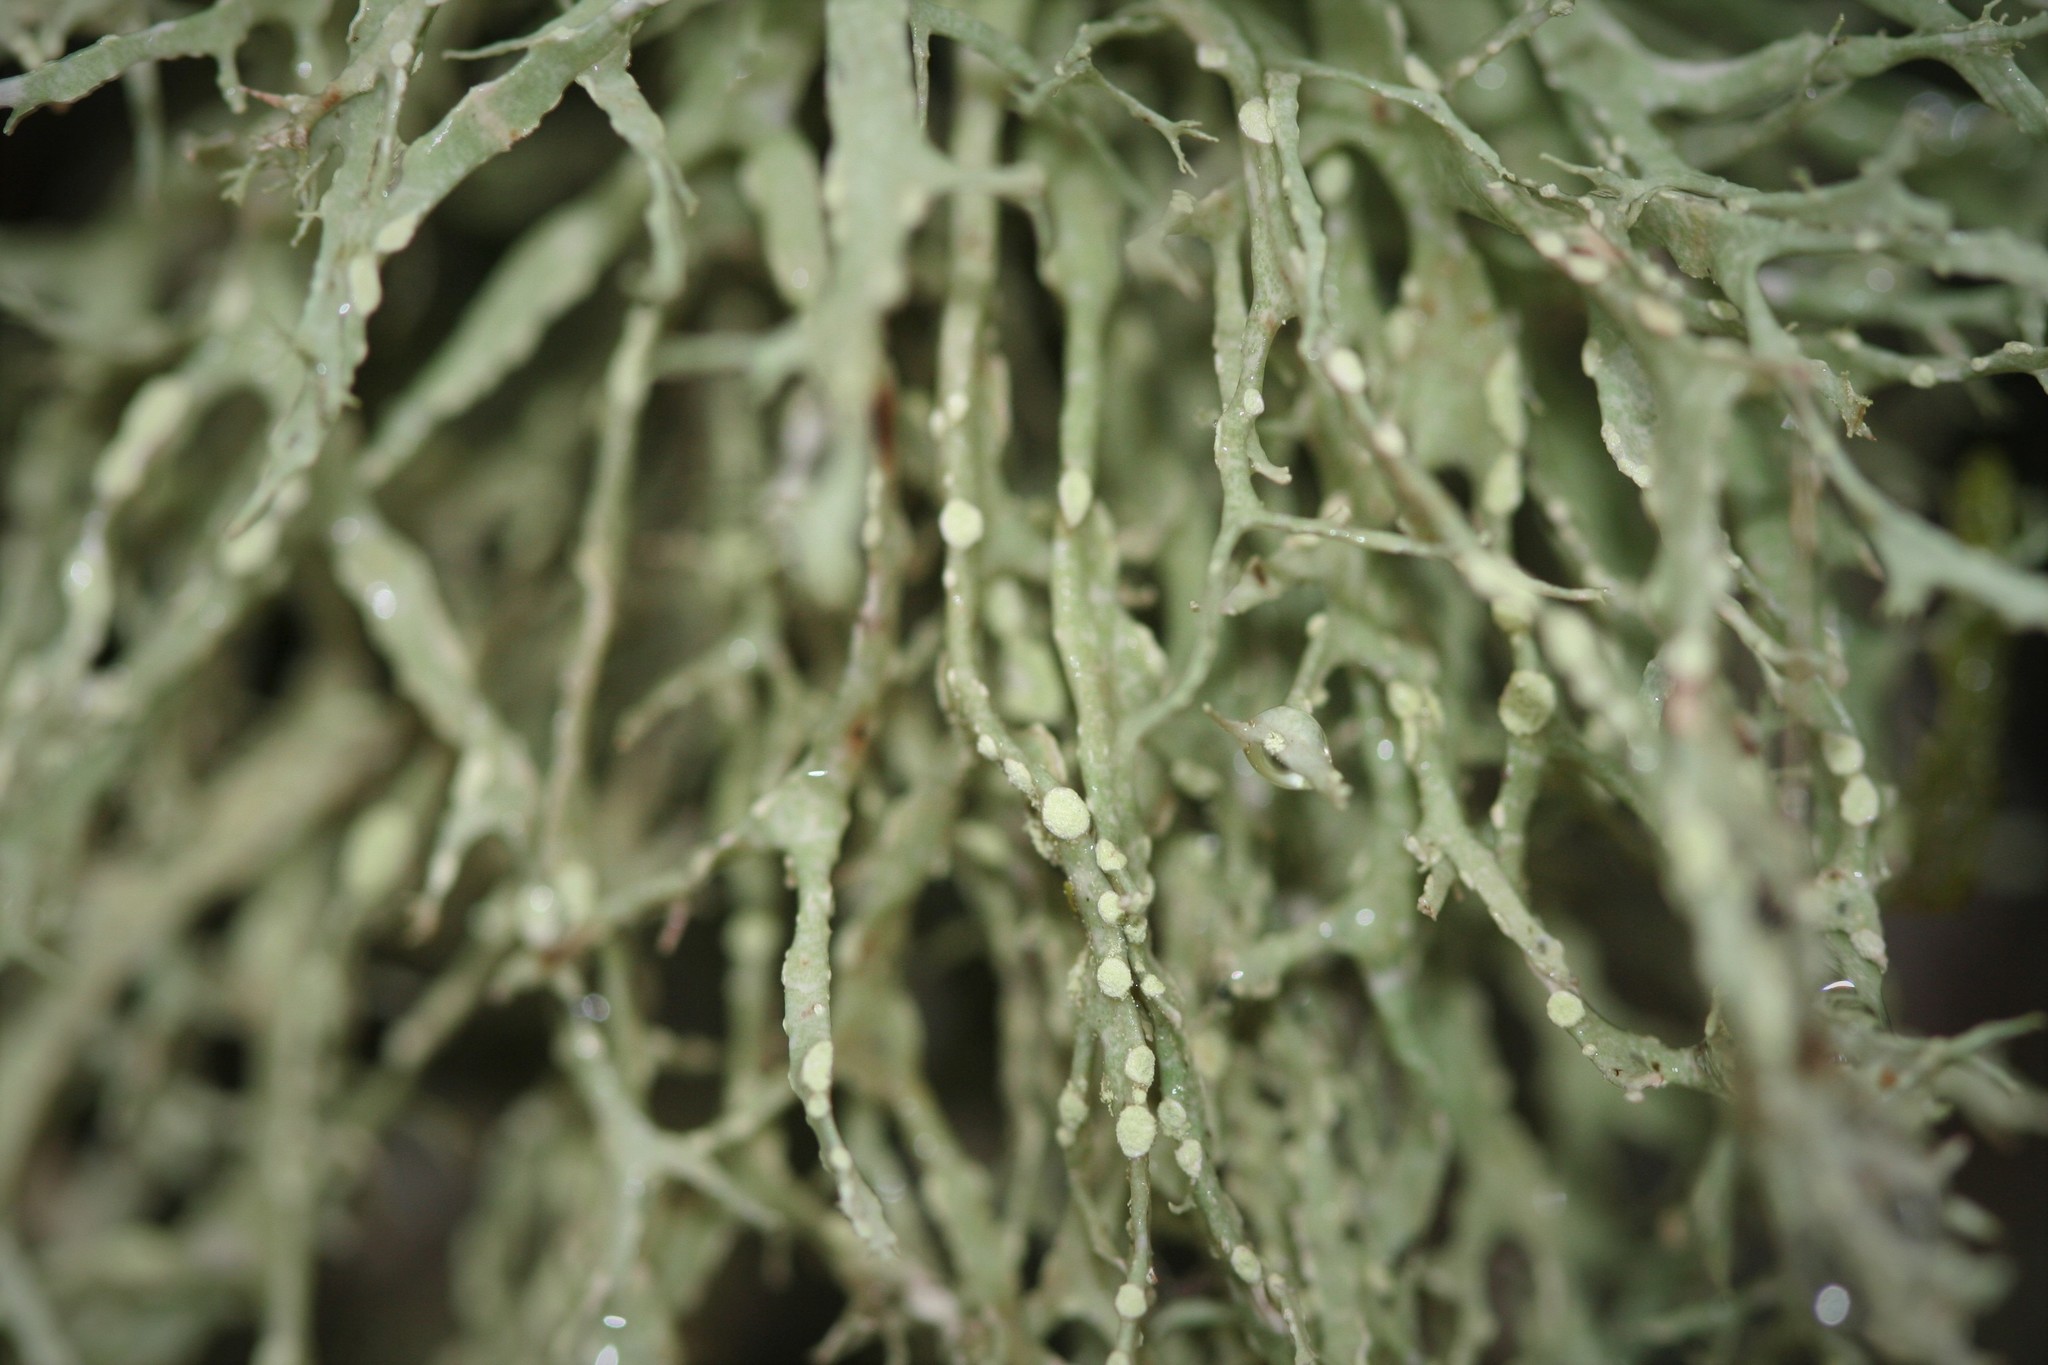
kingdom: Fungi
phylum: Ascomycota
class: Lecanoromycetes
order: Lecanorales
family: Ramalinaceae
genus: Ramalina
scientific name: Ramalina farinacea
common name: Farinose cartilage lichen
